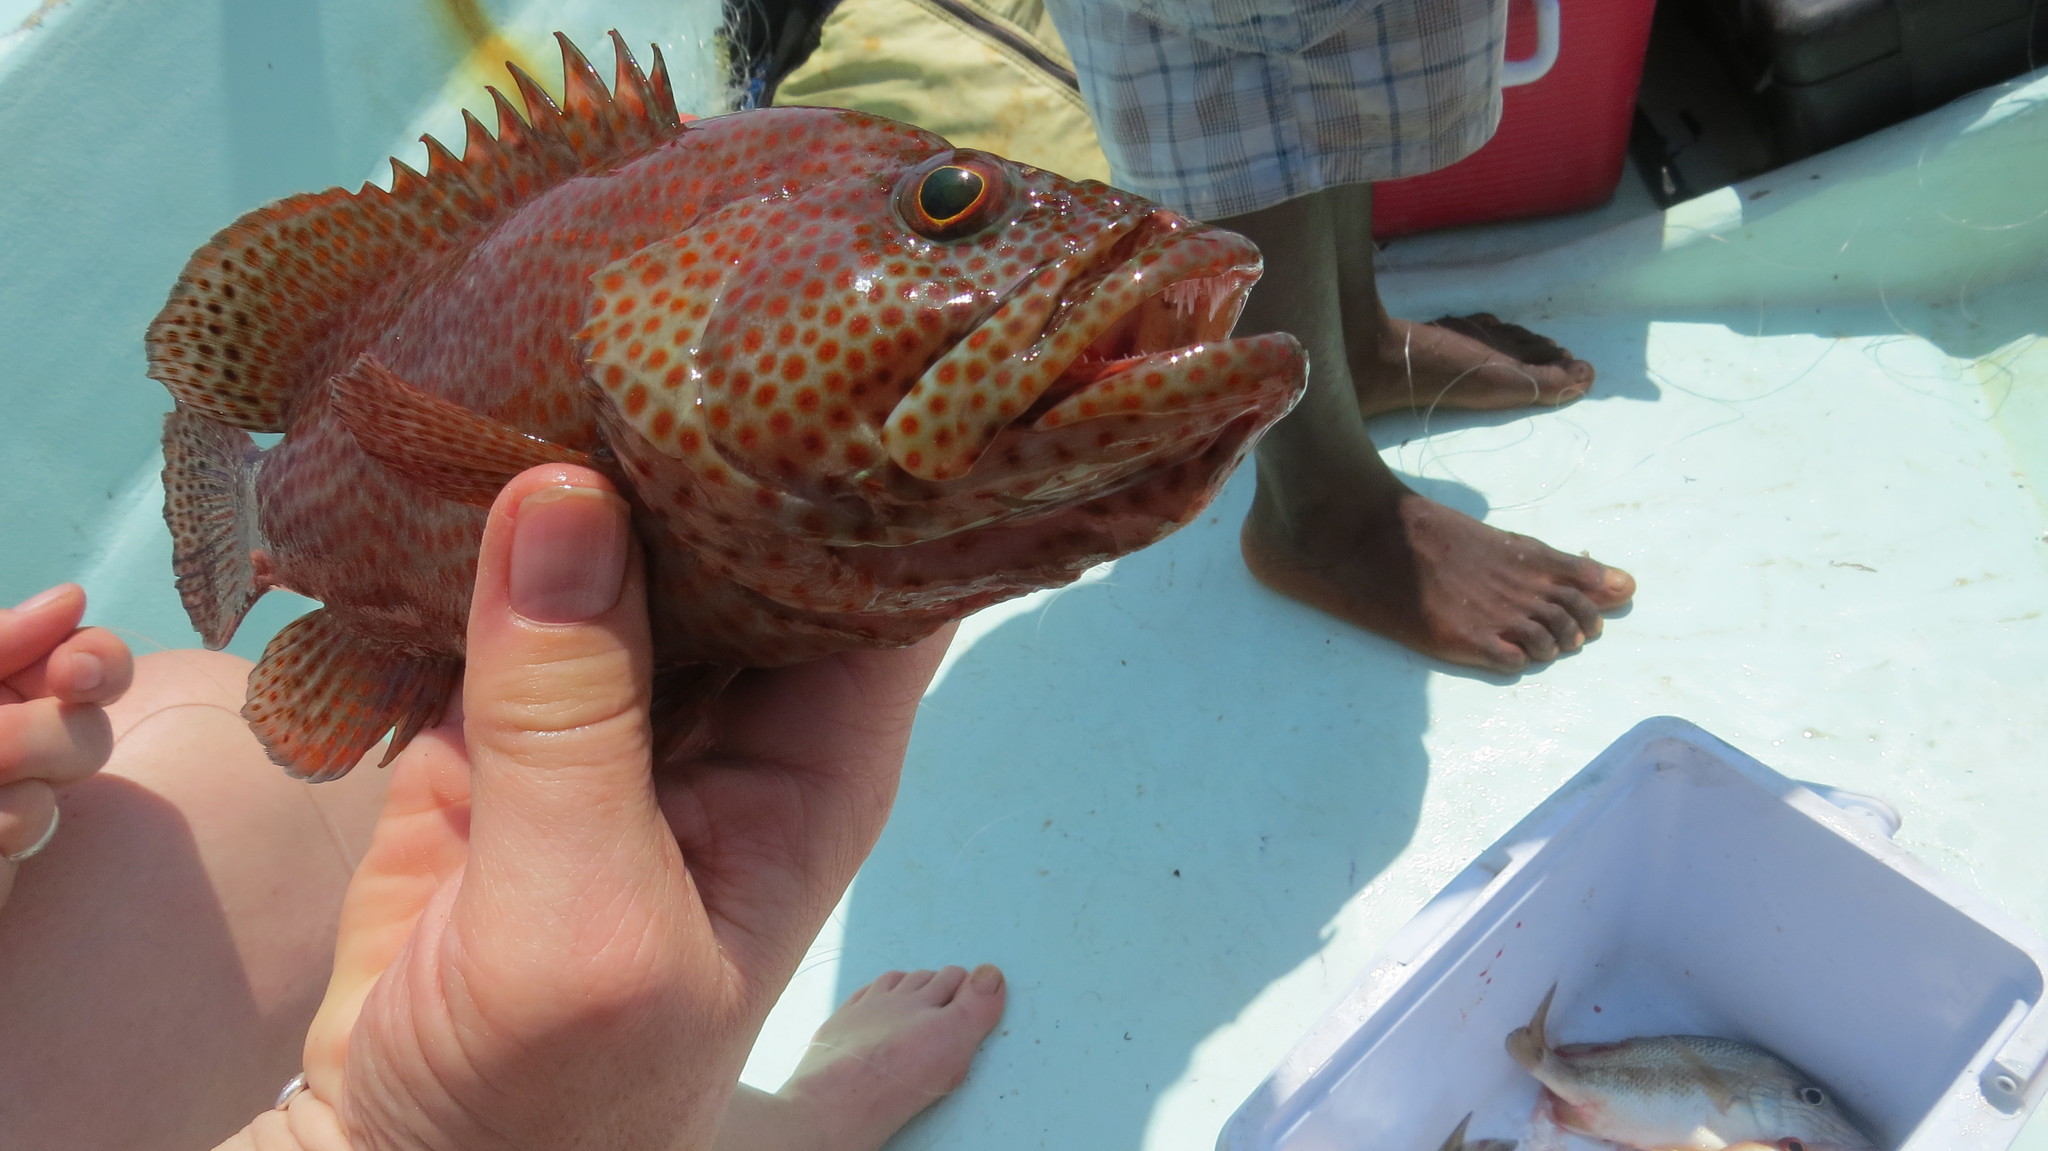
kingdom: Animalia
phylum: Chordata
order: Perciformes
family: Serranidae
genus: Cephalopholis
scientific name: Cephalopholis cruentata
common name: Graysby
